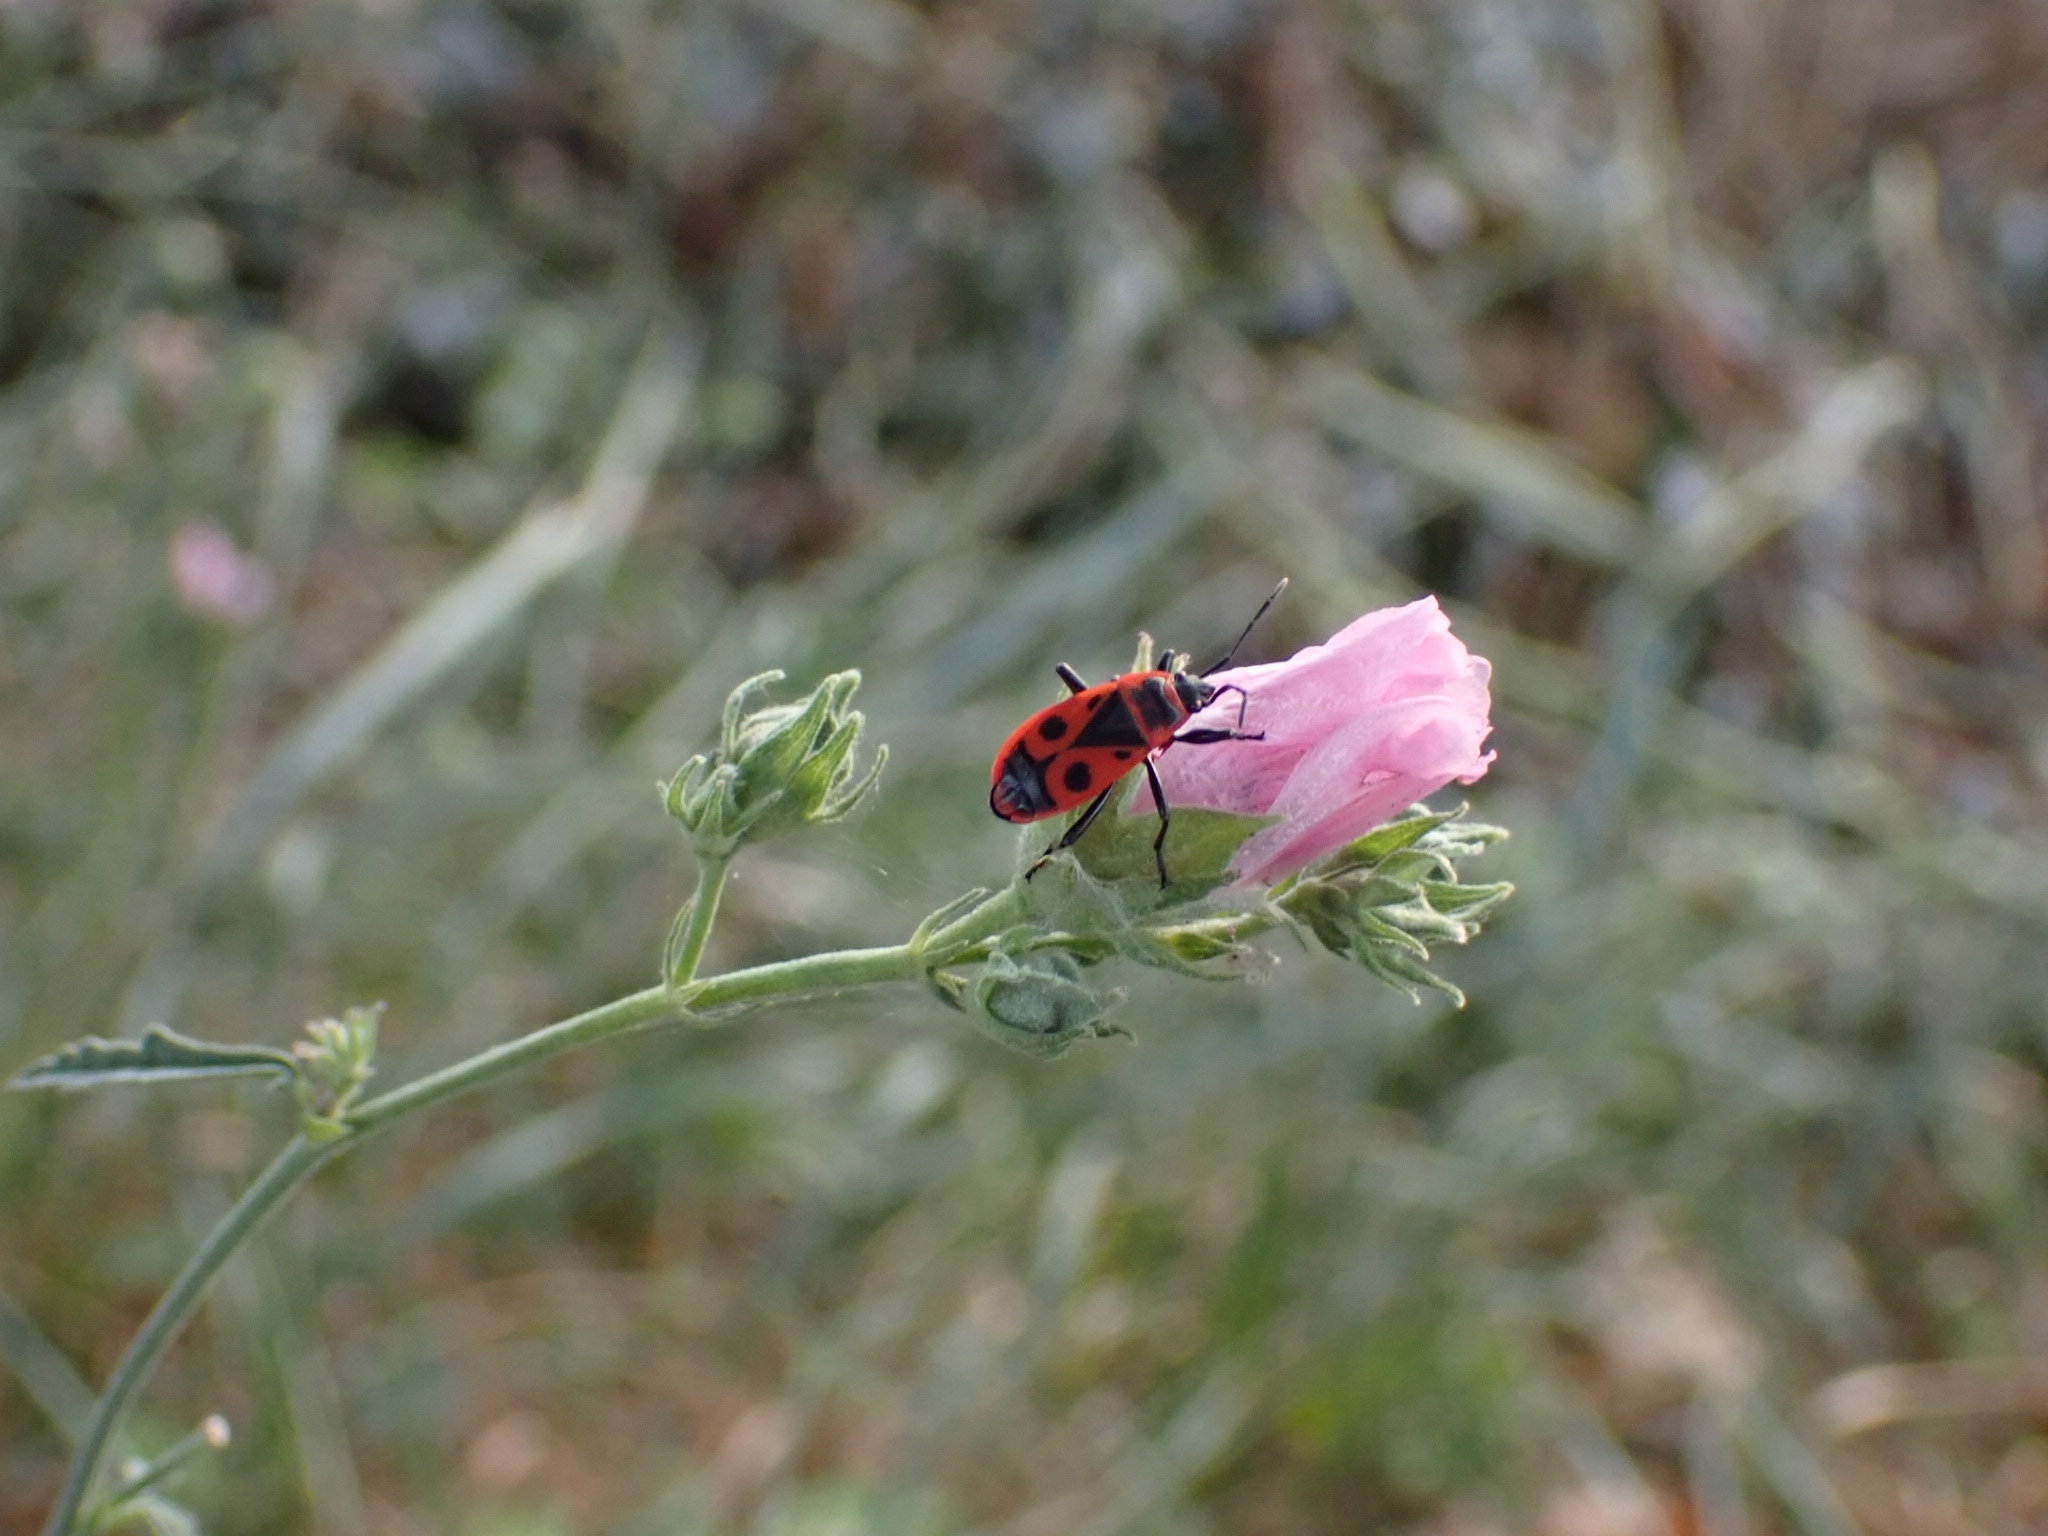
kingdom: Animalia
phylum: Arthropoda
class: Insecta
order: Hemiptera
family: Pyrrhocoridae
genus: Pyrrhocoris
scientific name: Pyrrhocoris apterus
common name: Firebug
